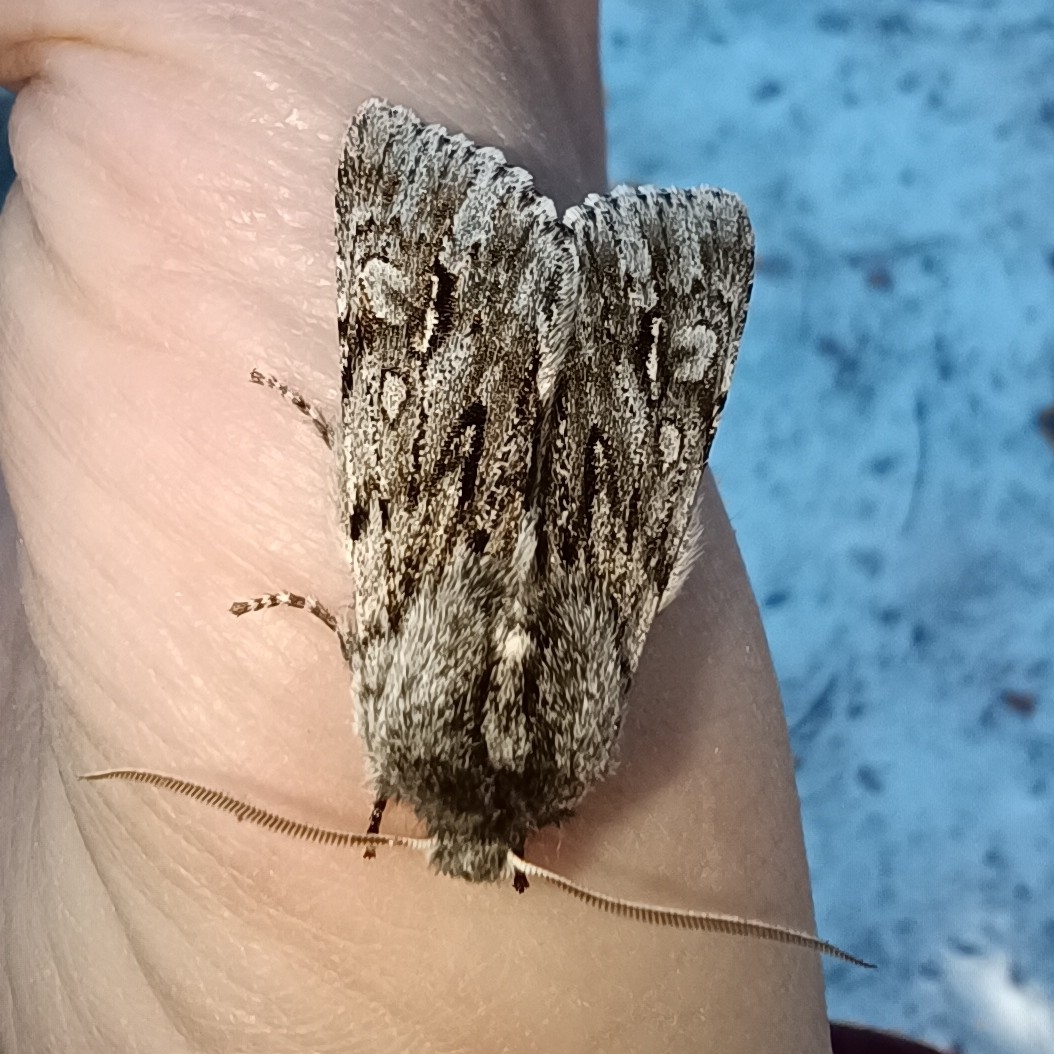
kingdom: Animalia
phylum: Arthropoda
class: Insecta
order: Lepidoptera
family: Noctuidae
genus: Brachionycha
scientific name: Brachionycha nubeculosa
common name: Rannoch sprawler
